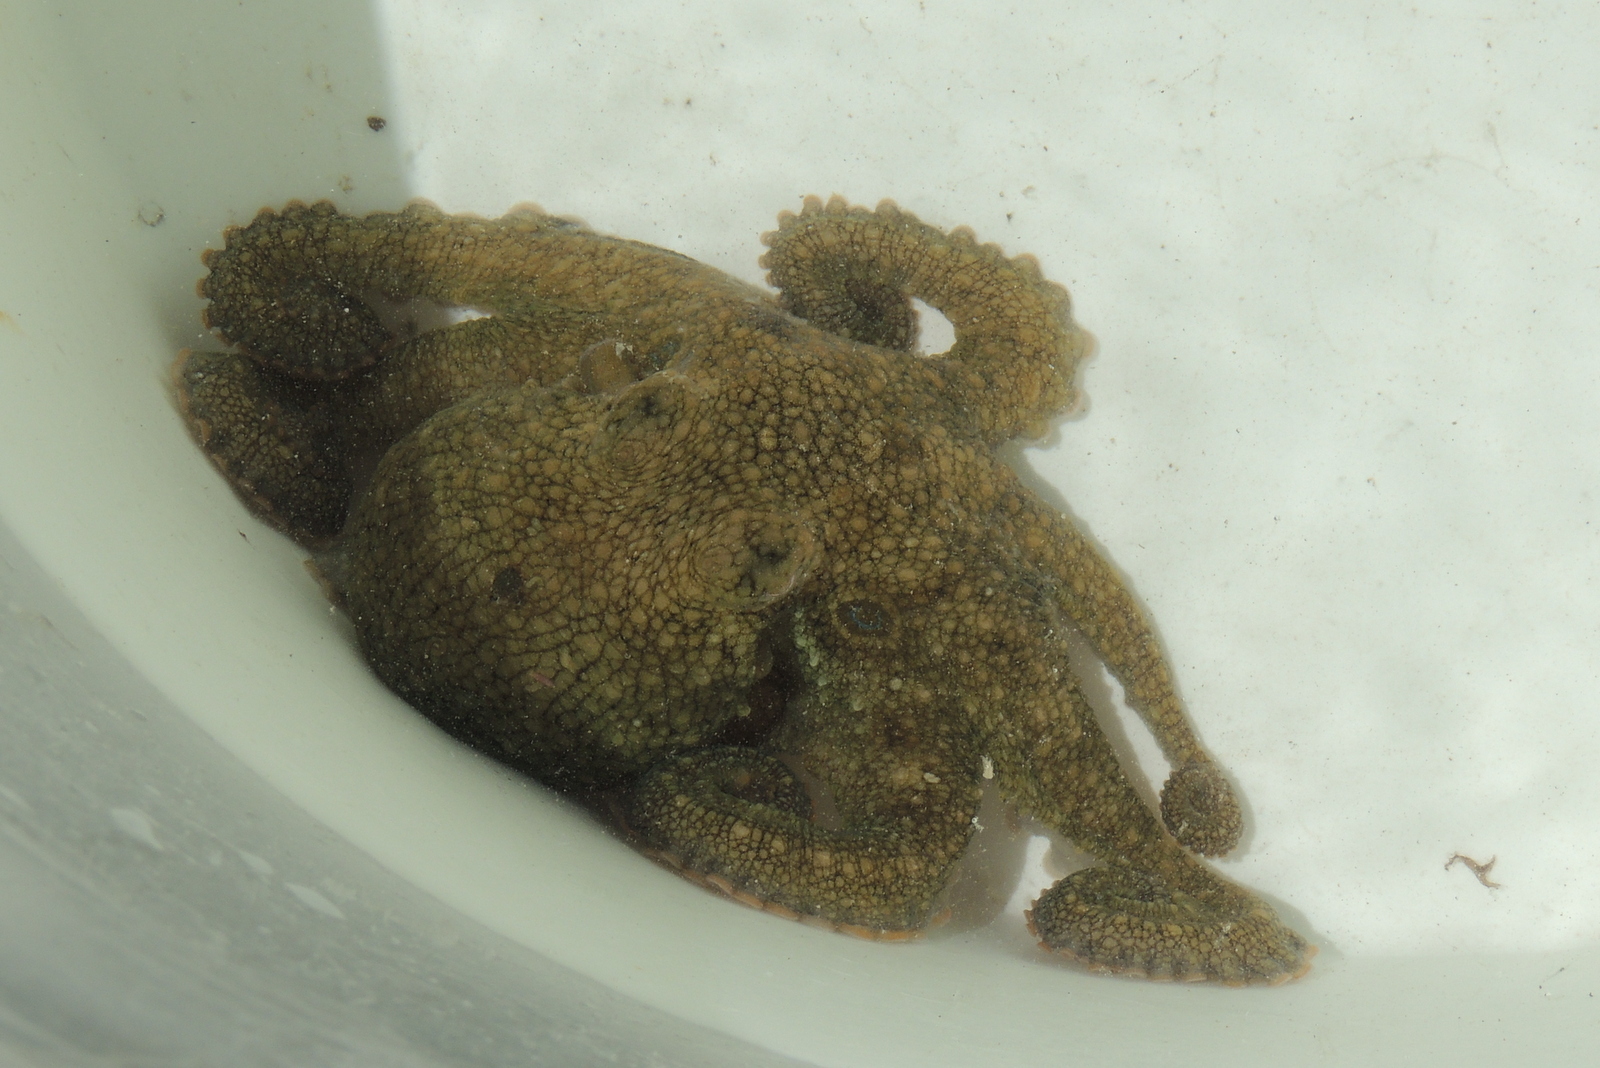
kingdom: Animalia
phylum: Mollusca
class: Cephalopoda
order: Octopoda
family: Octopodidae
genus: Octopus
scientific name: Octopus bimaculoides
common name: California two-spot octopus
